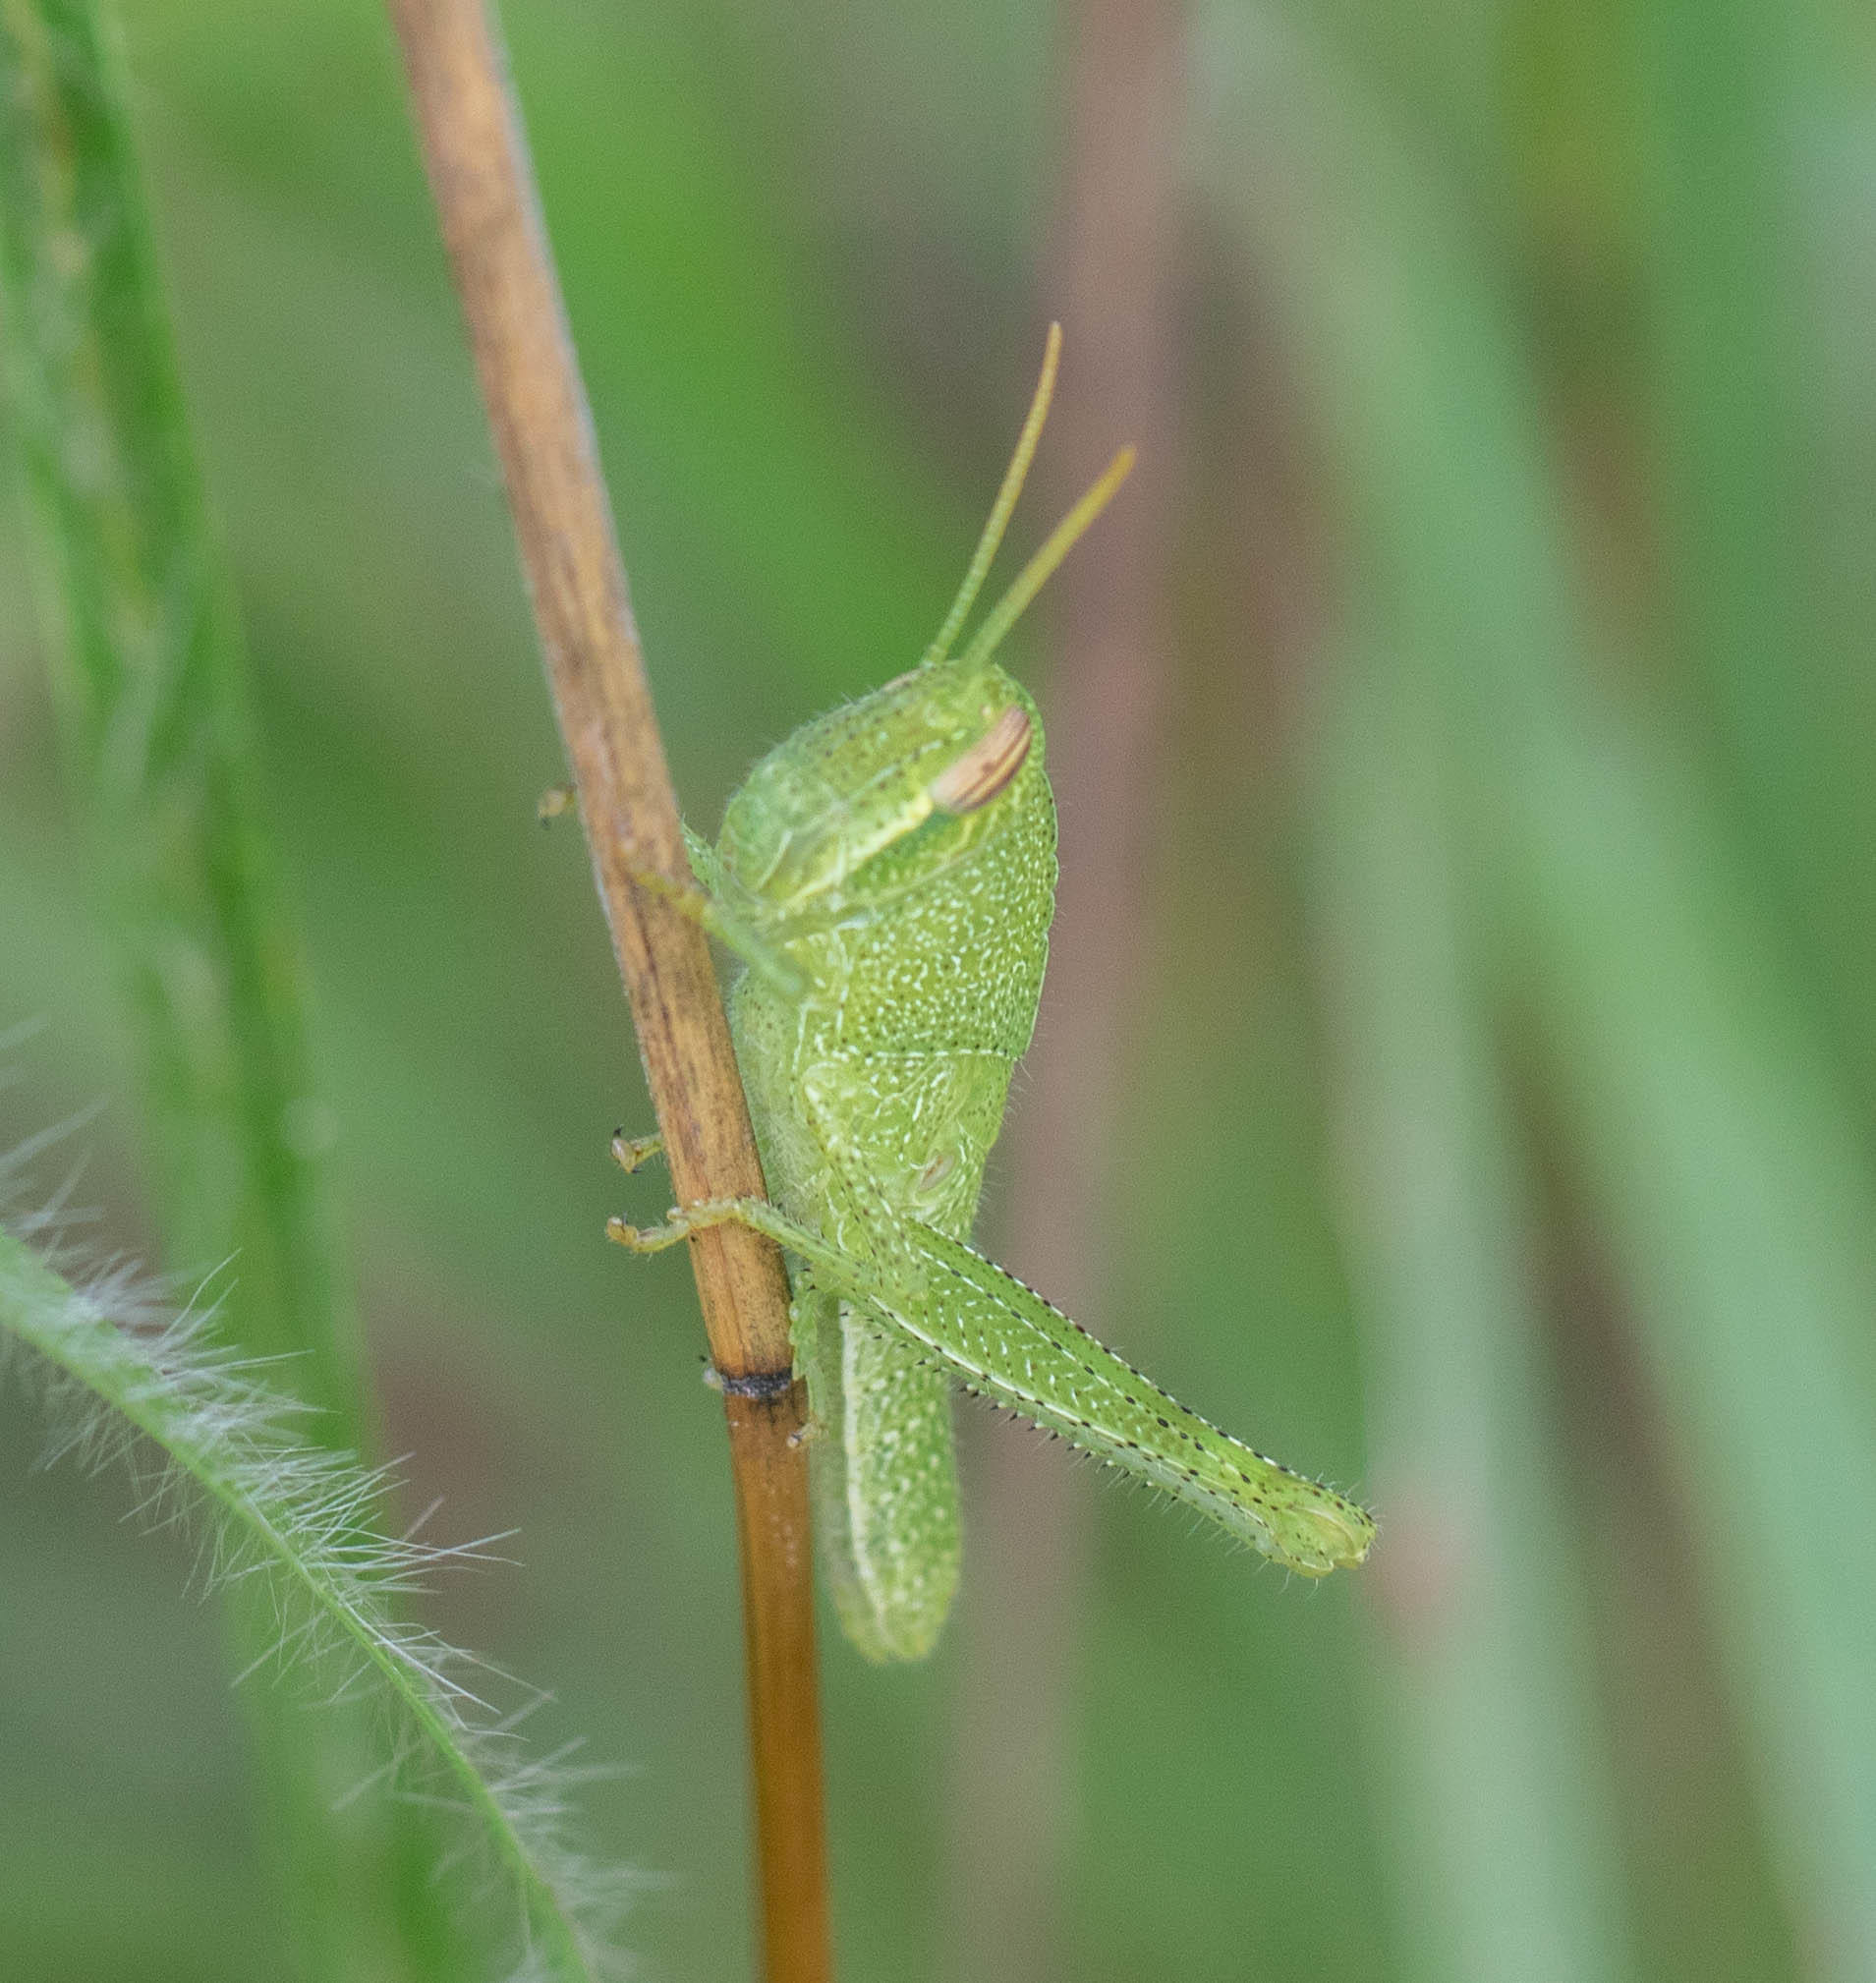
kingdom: Animalia
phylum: Arthropoda
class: Insecta
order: Orthoptera
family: Acrididae
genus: Schistocerca
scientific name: Schistocerca damnifica
